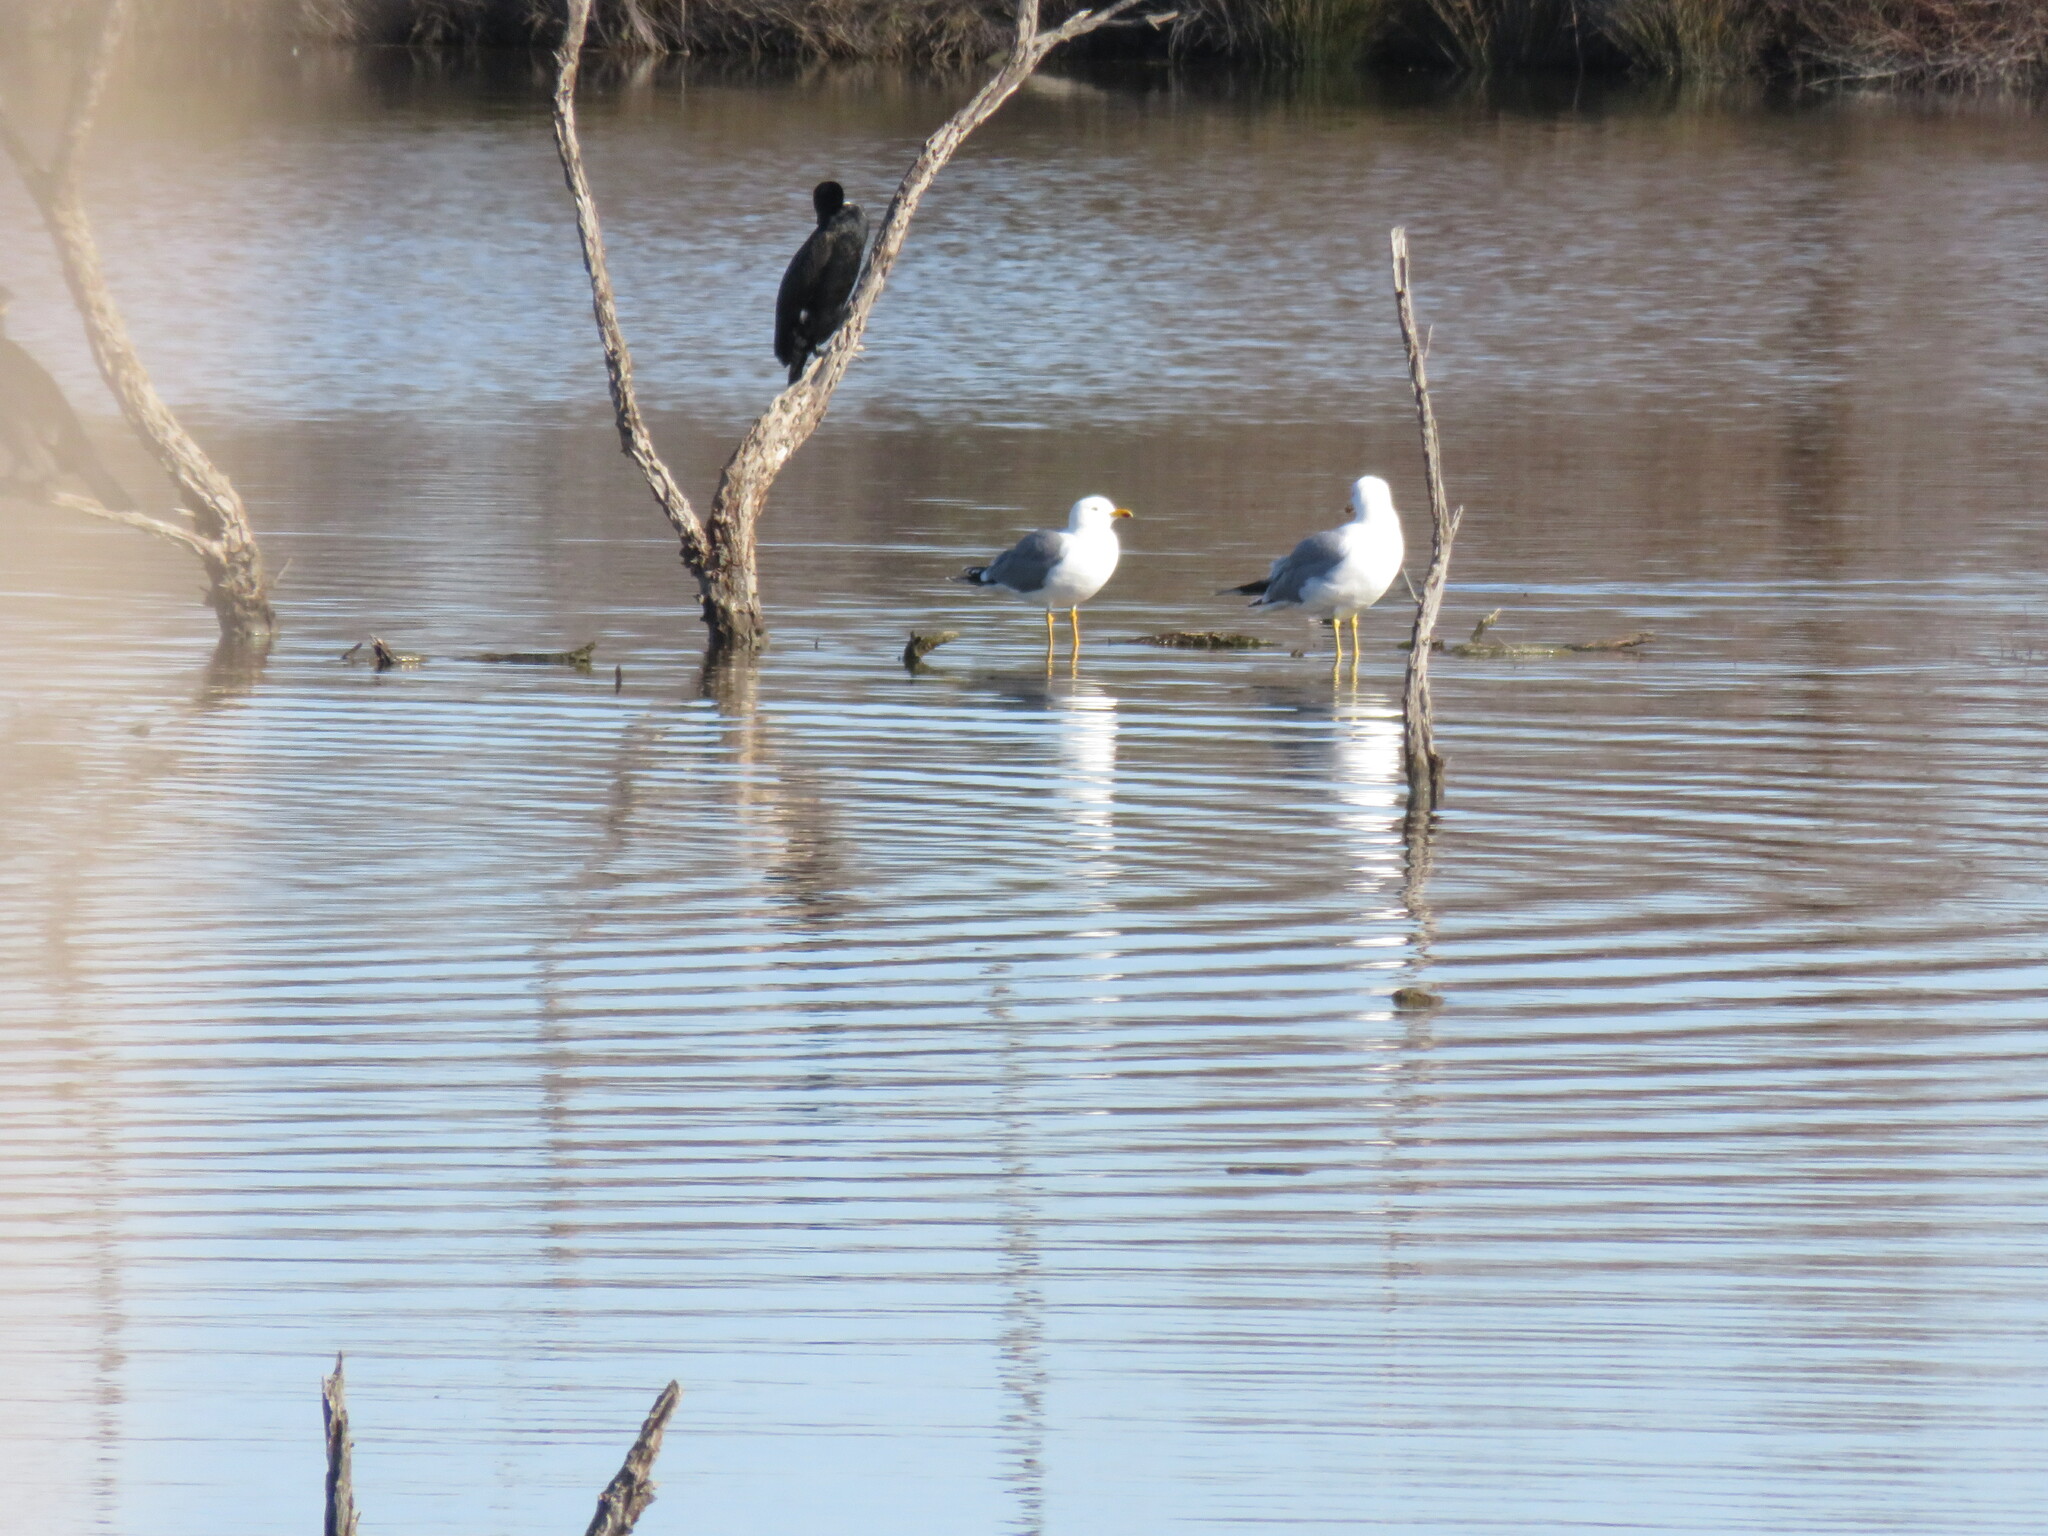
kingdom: Animalia
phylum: Chordata
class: Aves
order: Charadriiformes
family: Laridae
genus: Larus
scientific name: Larus michahellis
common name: Yellow-legged gull
